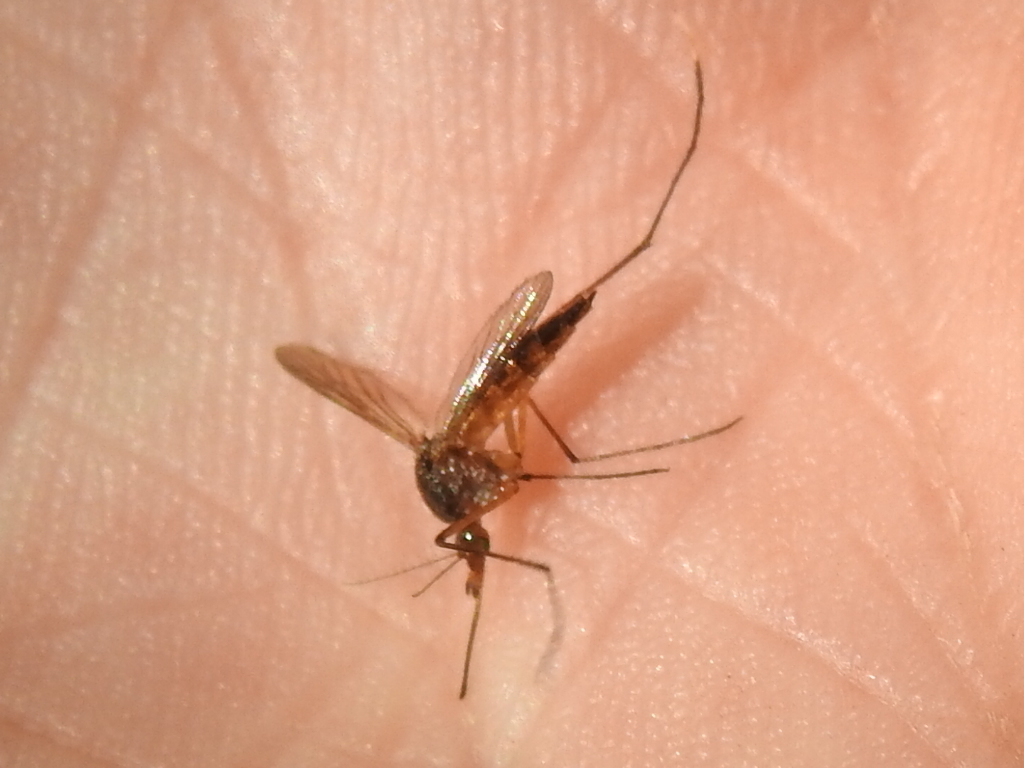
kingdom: Animalia
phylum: Arthropoda
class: Insecta
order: Diptera
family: Culicidae
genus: Psorophora
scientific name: Psorophora ferox
